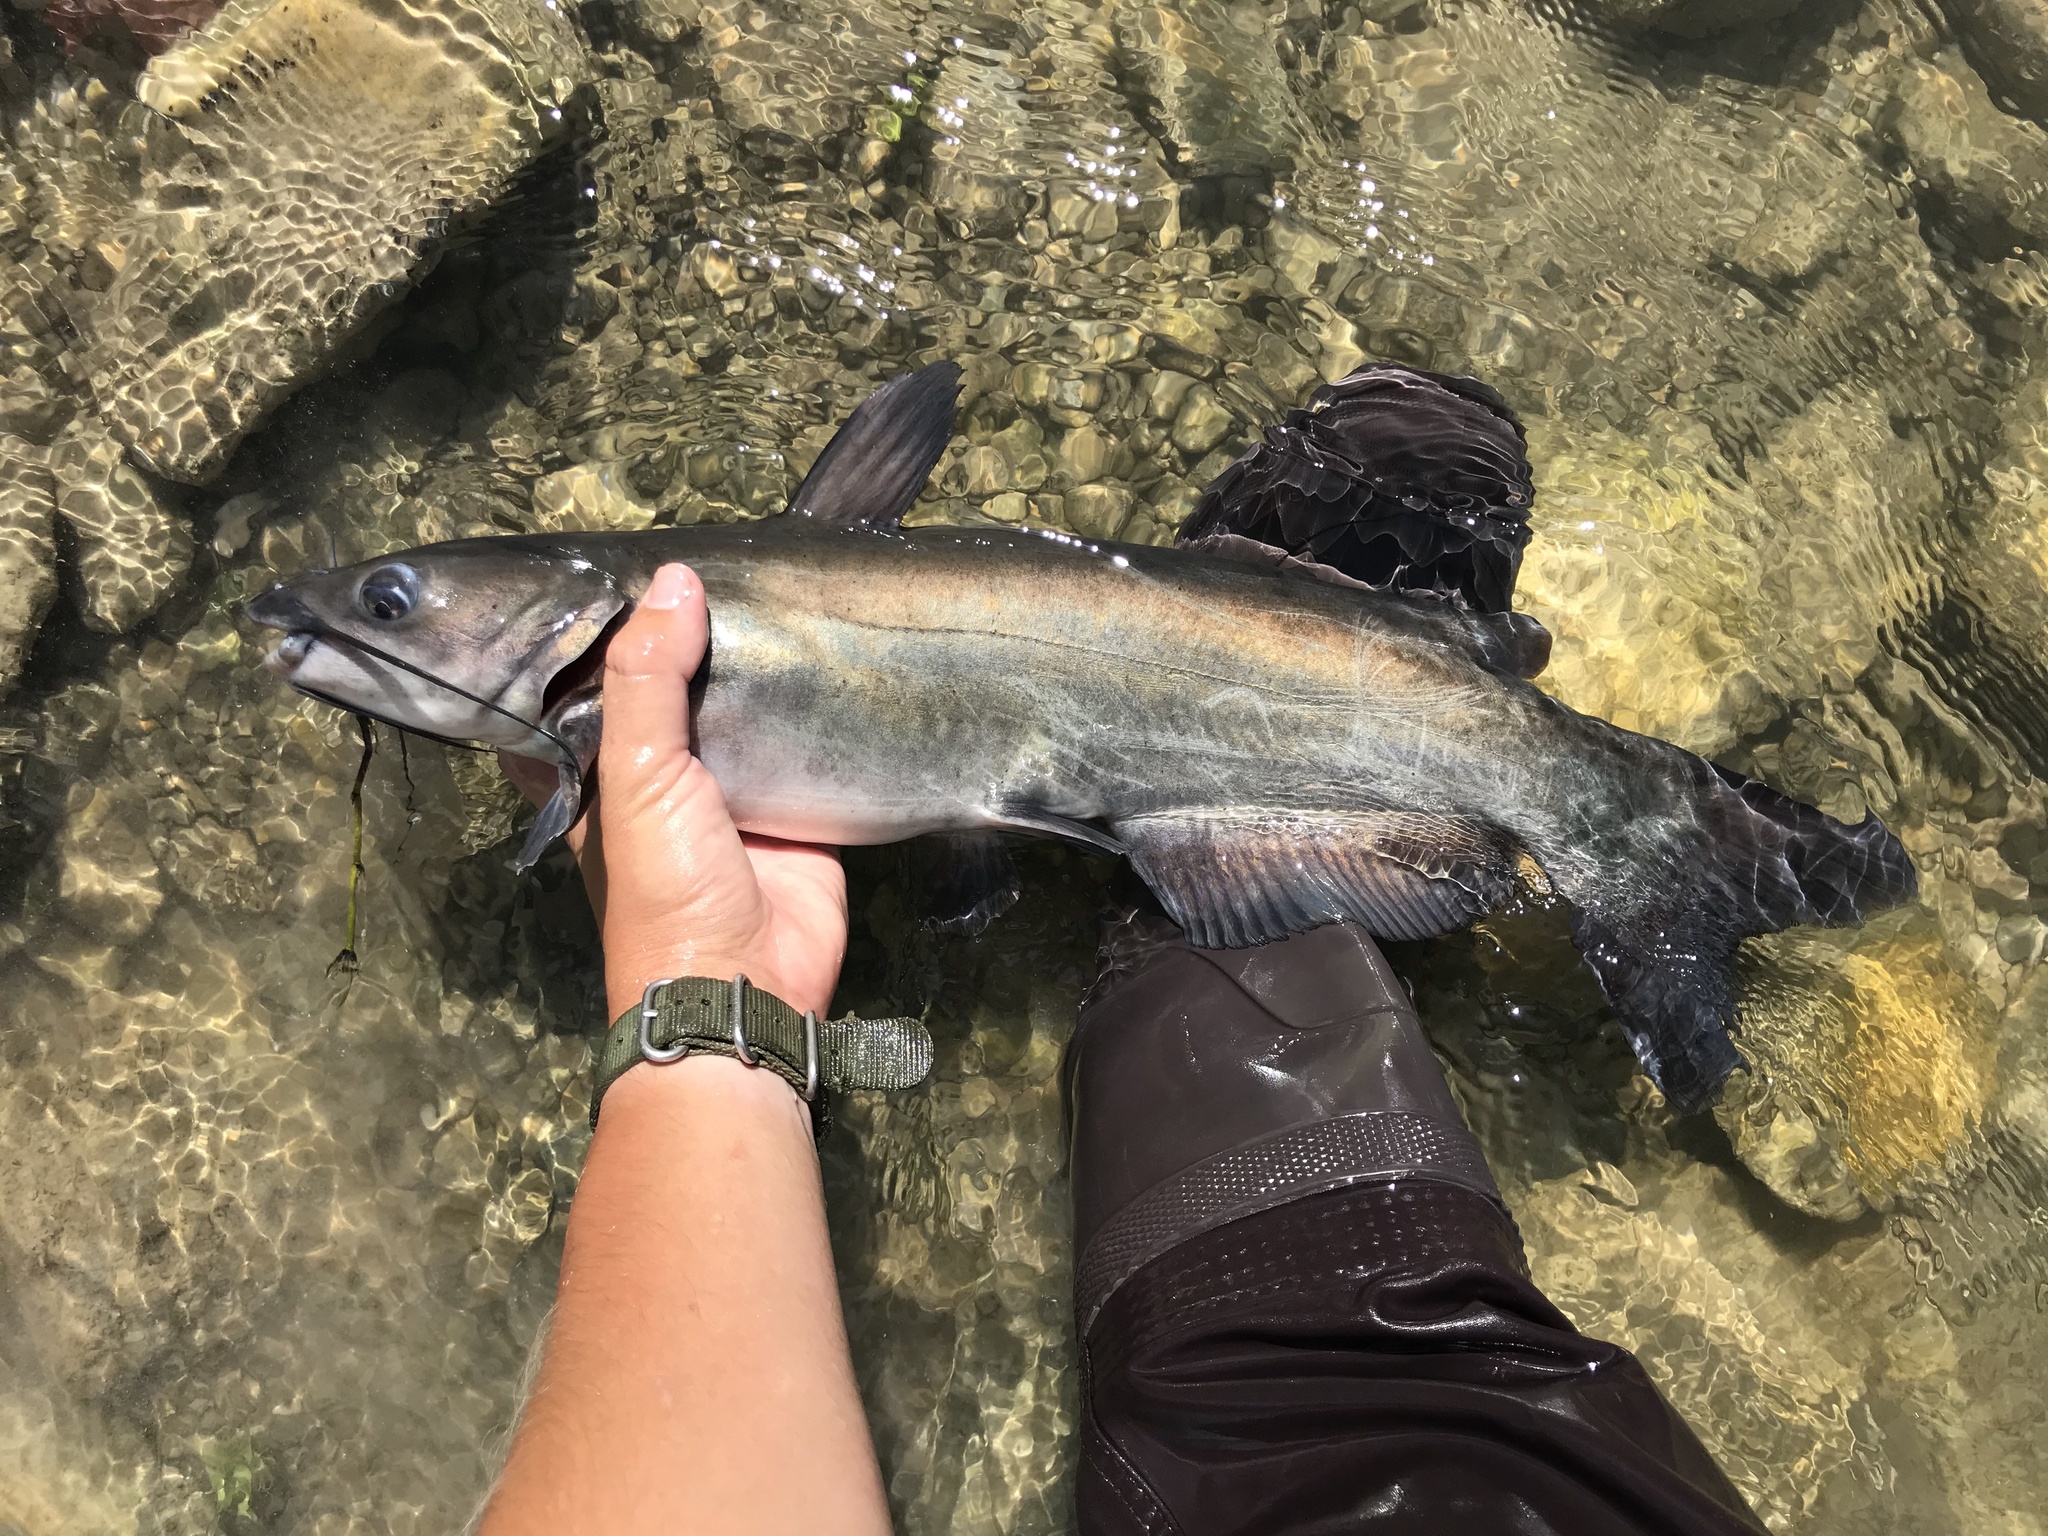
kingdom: Animalia
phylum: Chordata
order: Siluriformes
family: Ictaluridae
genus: Ictalurus
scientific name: Ictalurus punctatus
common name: Channel catfish
